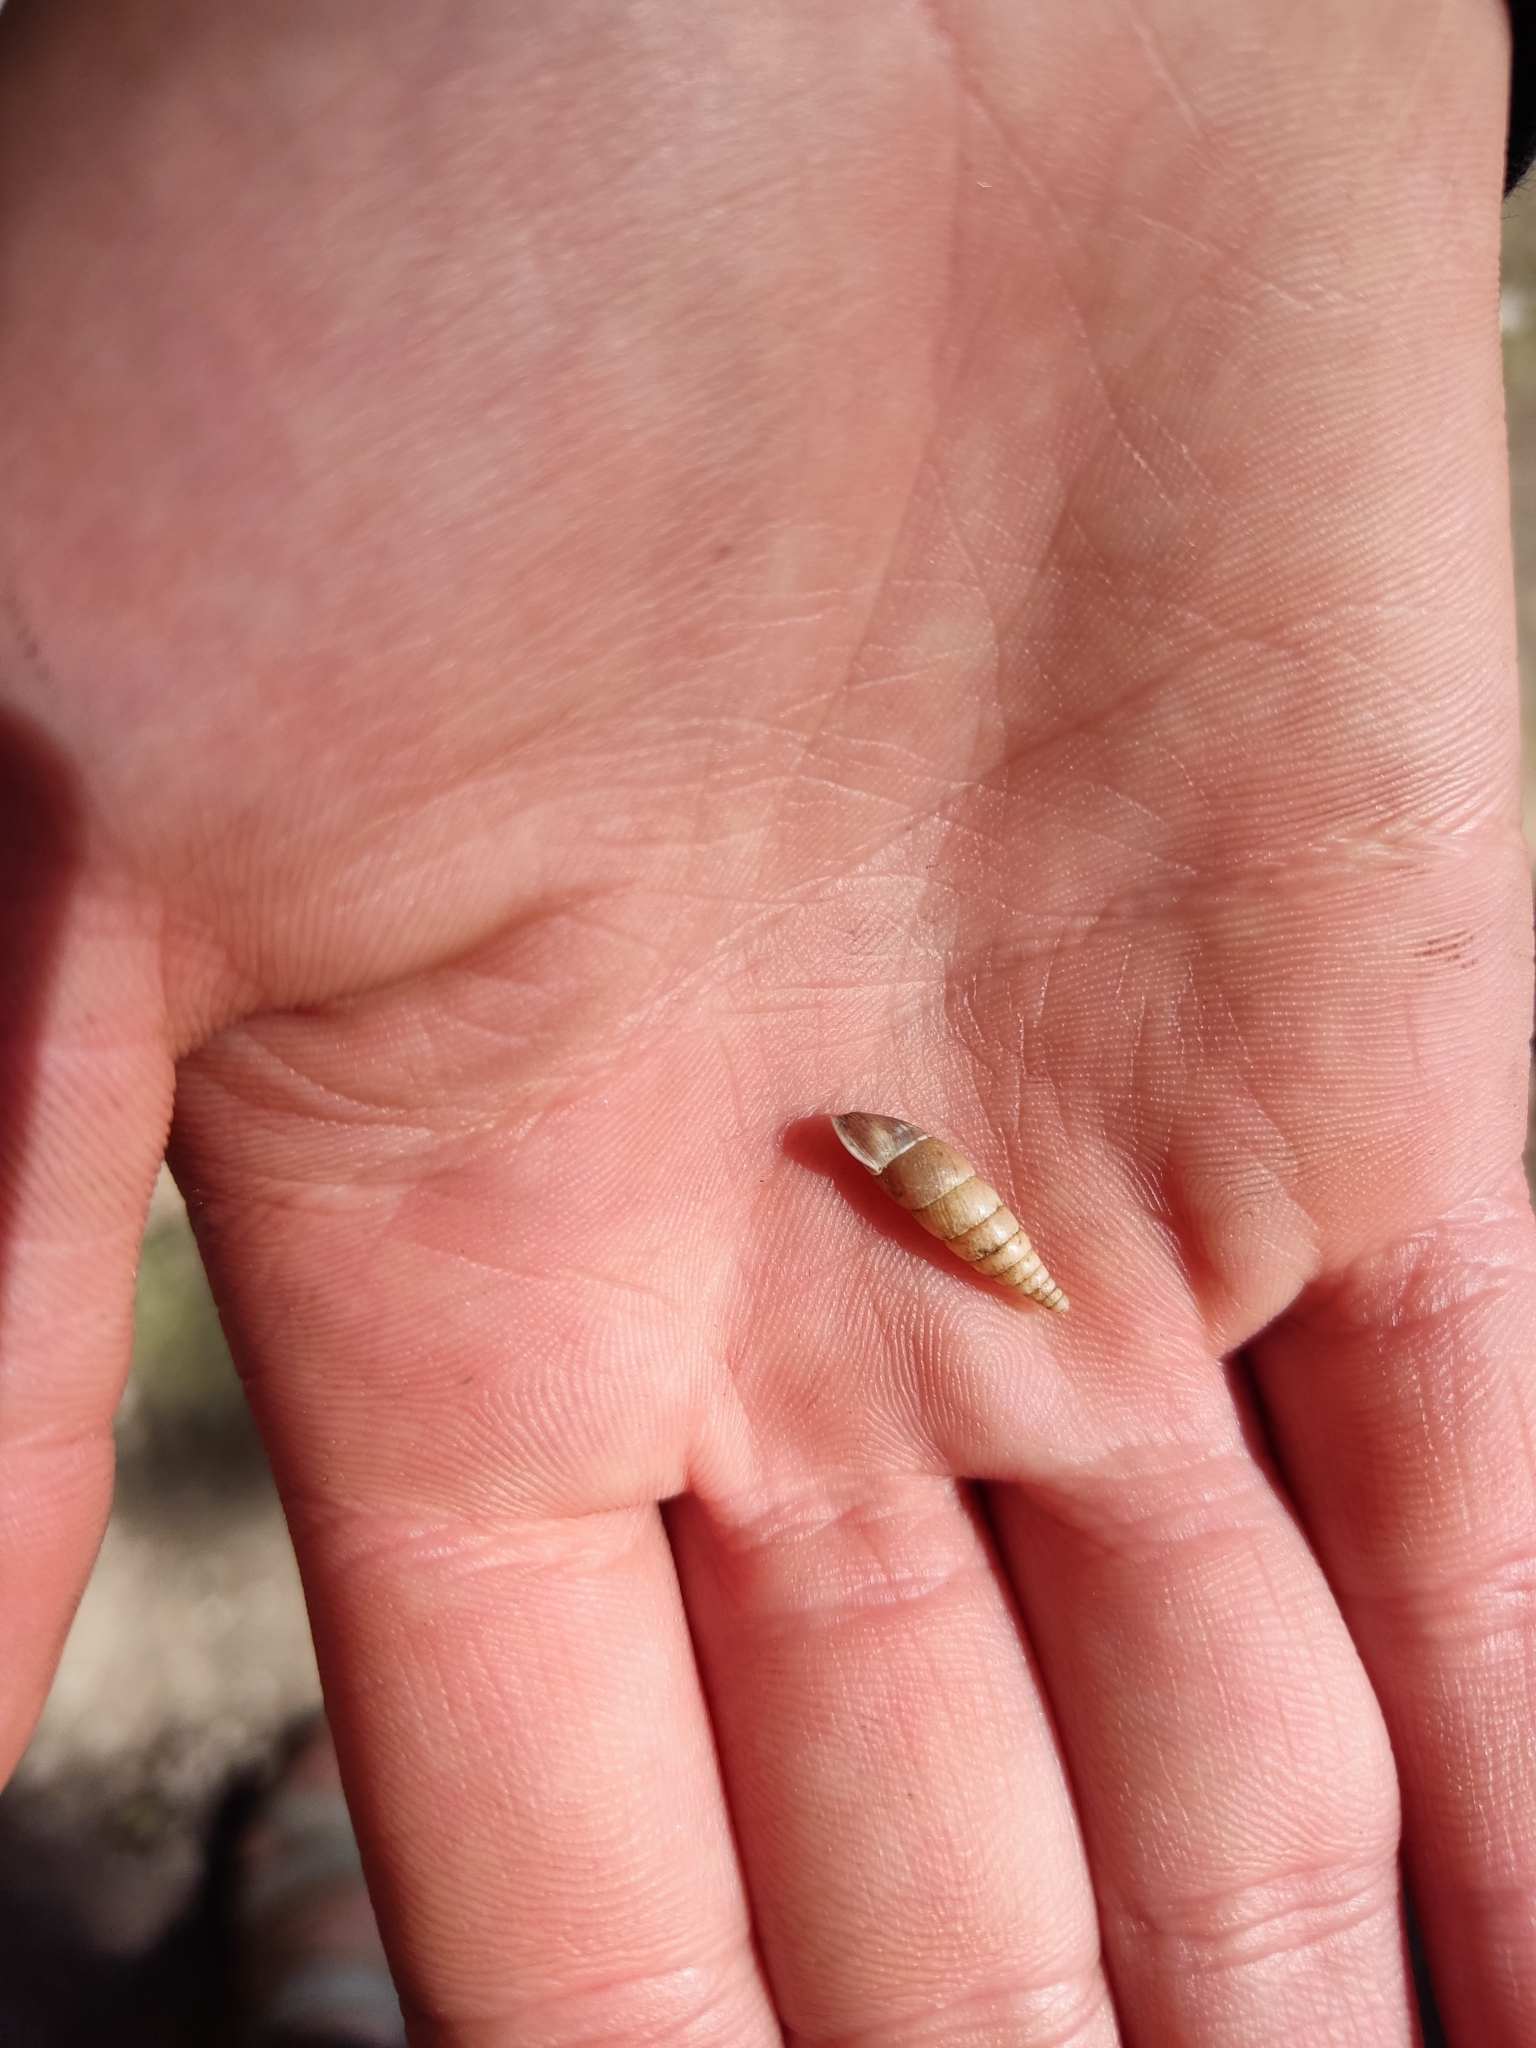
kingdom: Animalia
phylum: Mollusca
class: Gastropoda
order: Stylommatophora
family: Clausiliidae
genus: Cochlodina
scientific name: Cochlodina laminata
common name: Plaited door snail
